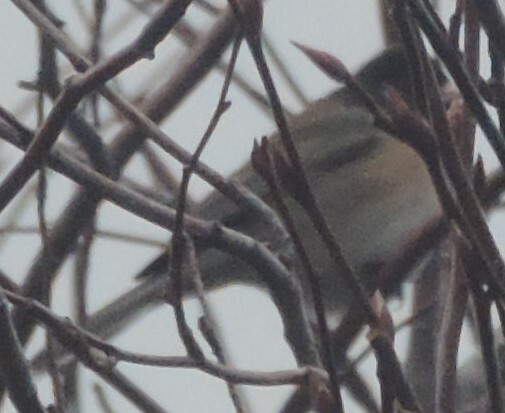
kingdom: Animalia
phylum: Chordata
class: Aves
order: Passeriformes
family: Passerellidae
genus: Junco
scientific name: Junco hyemalis
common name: Dark-eyed junco
